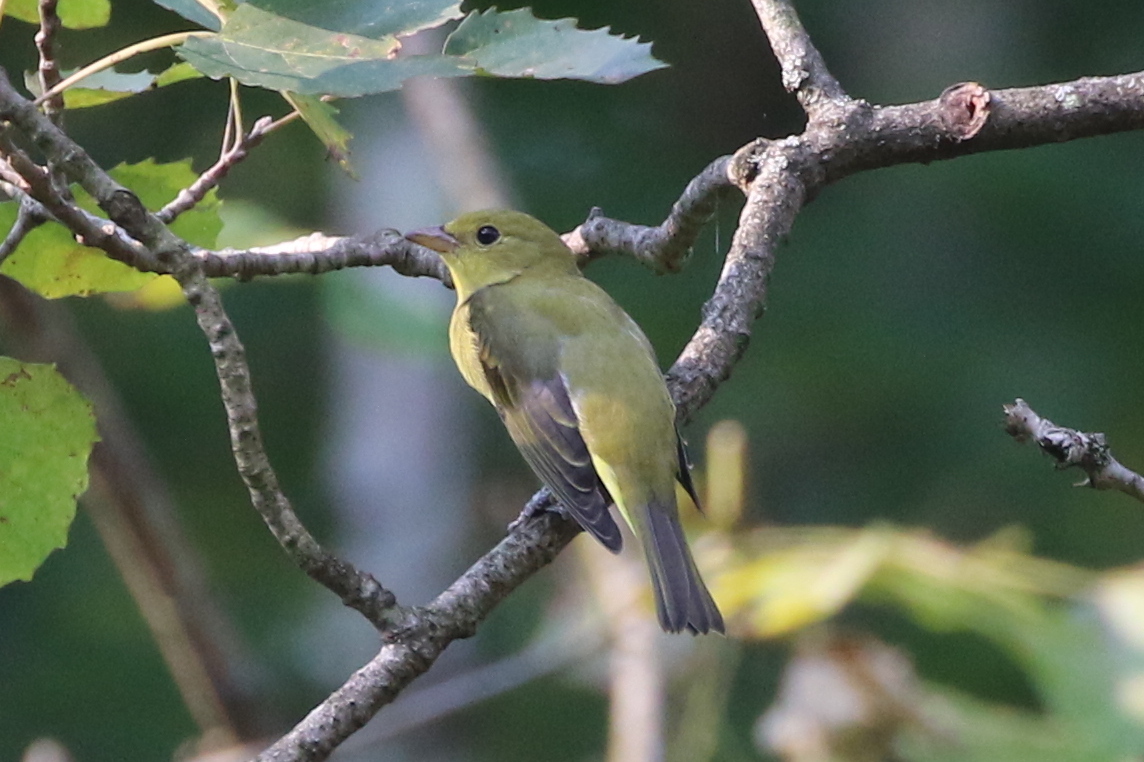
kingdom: Animalia
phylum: Chordata
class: Aves
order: Passeriformes
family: Cardinalidae
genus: Piranga
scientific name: Piranga olivacea
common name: Scarlet tanager
